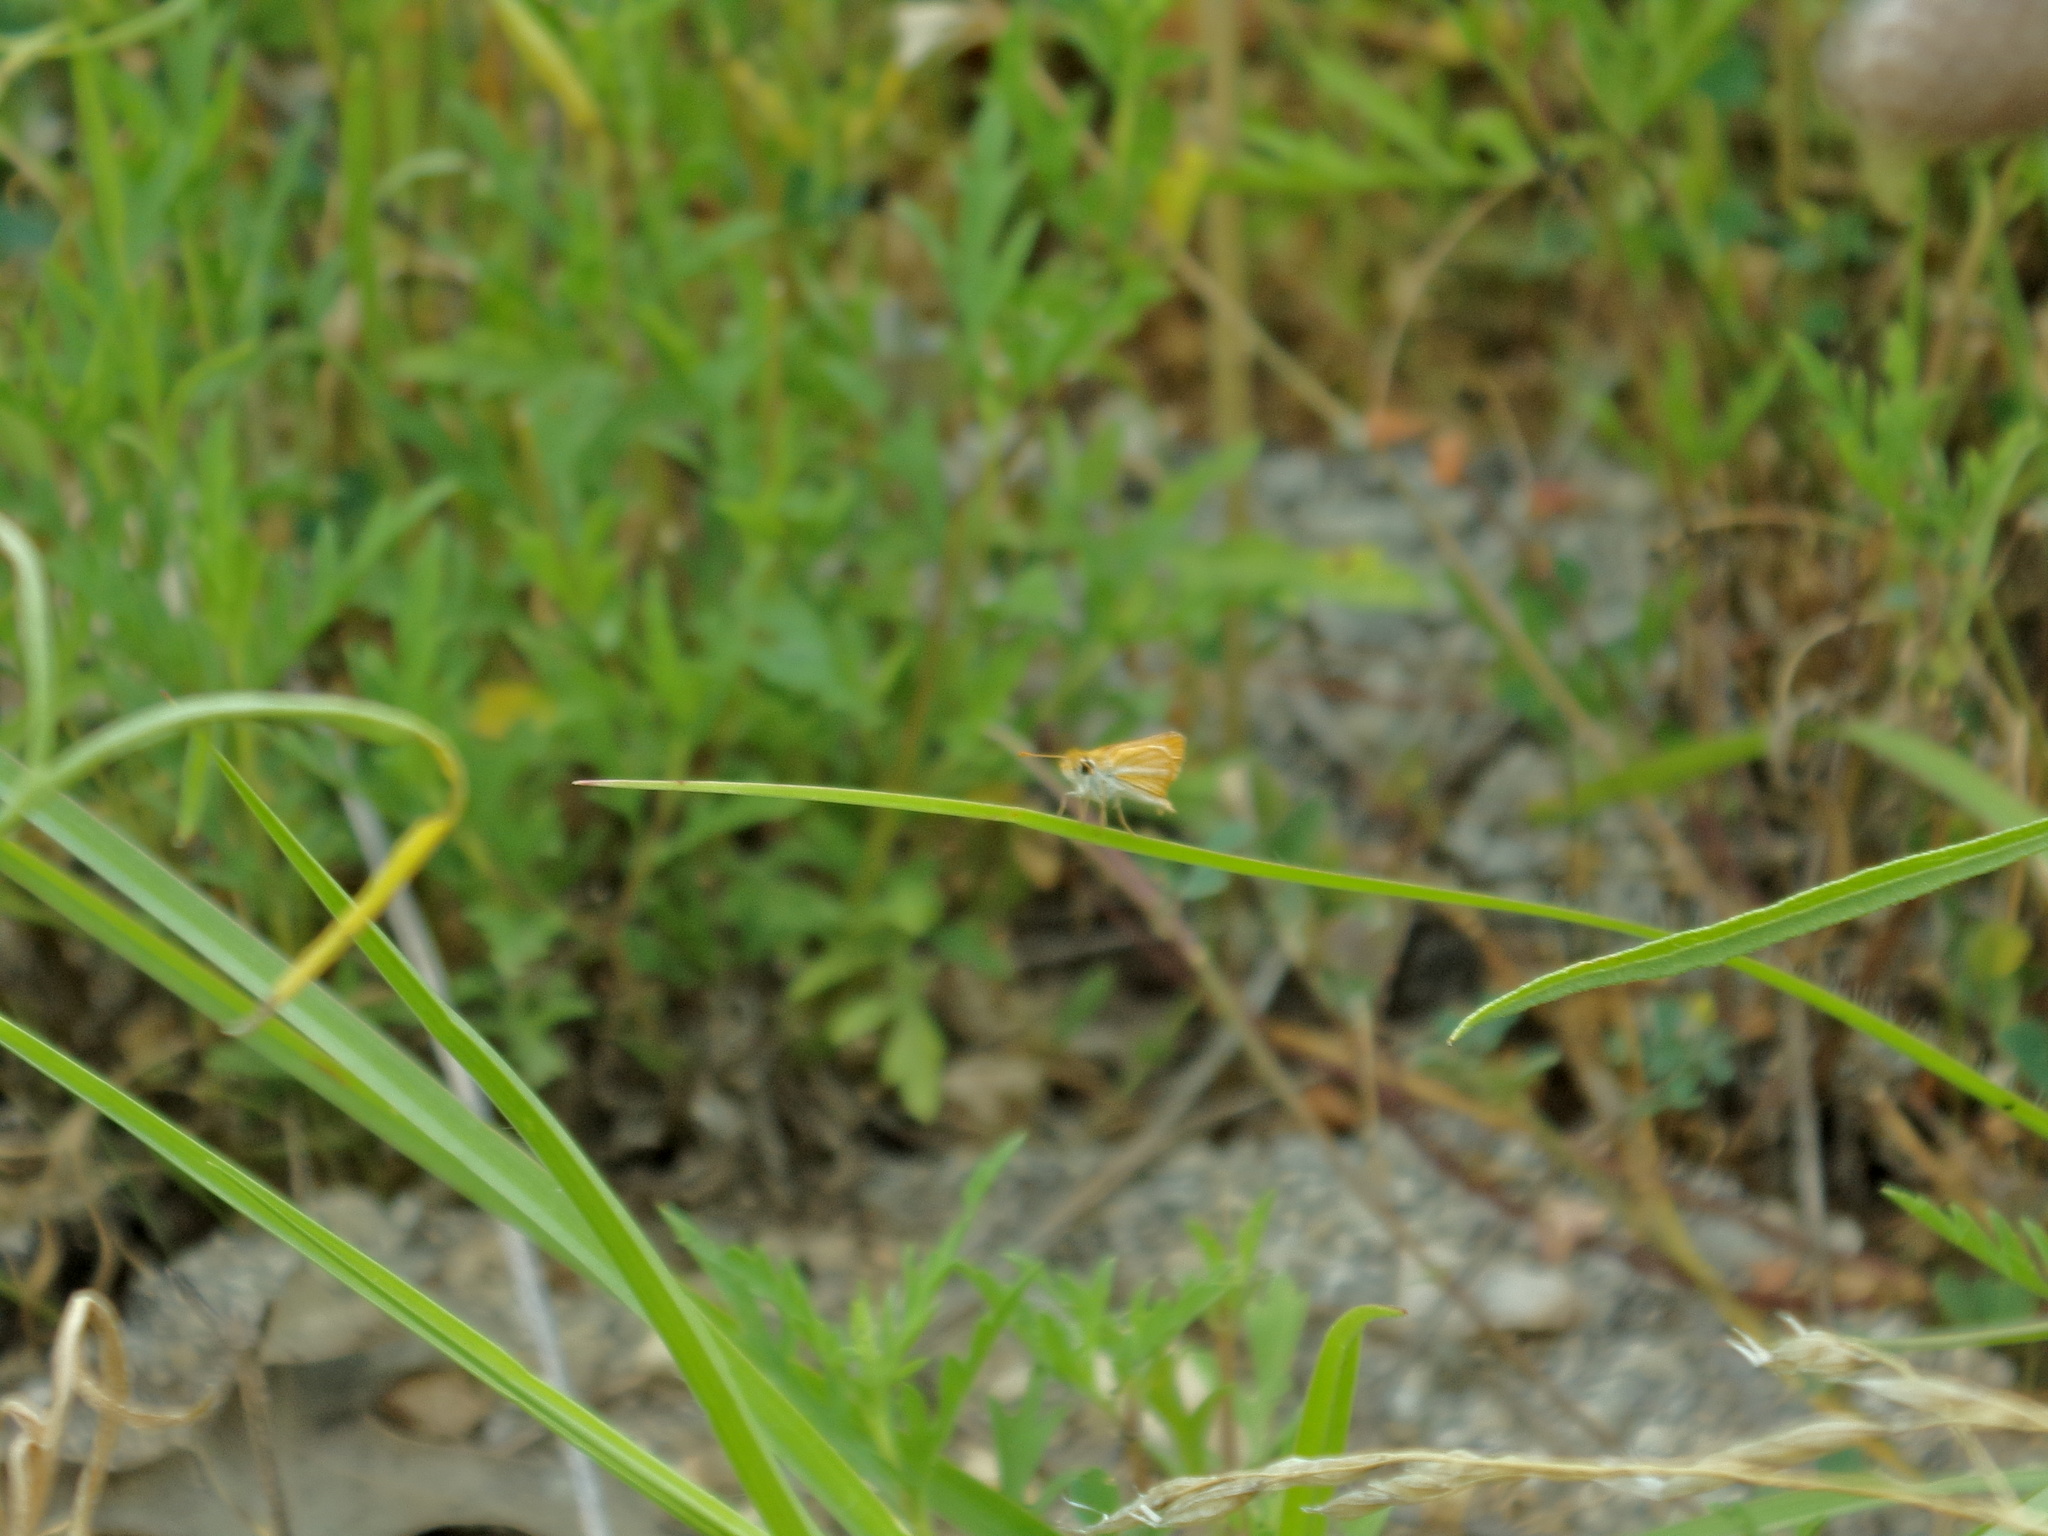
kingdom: Animalia
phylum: Arthropoda
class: Insecta
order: Lepidoptera
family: Hesperiidae
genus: Copaeodes
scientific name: Copaeodes minima
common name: Southern skipperling
